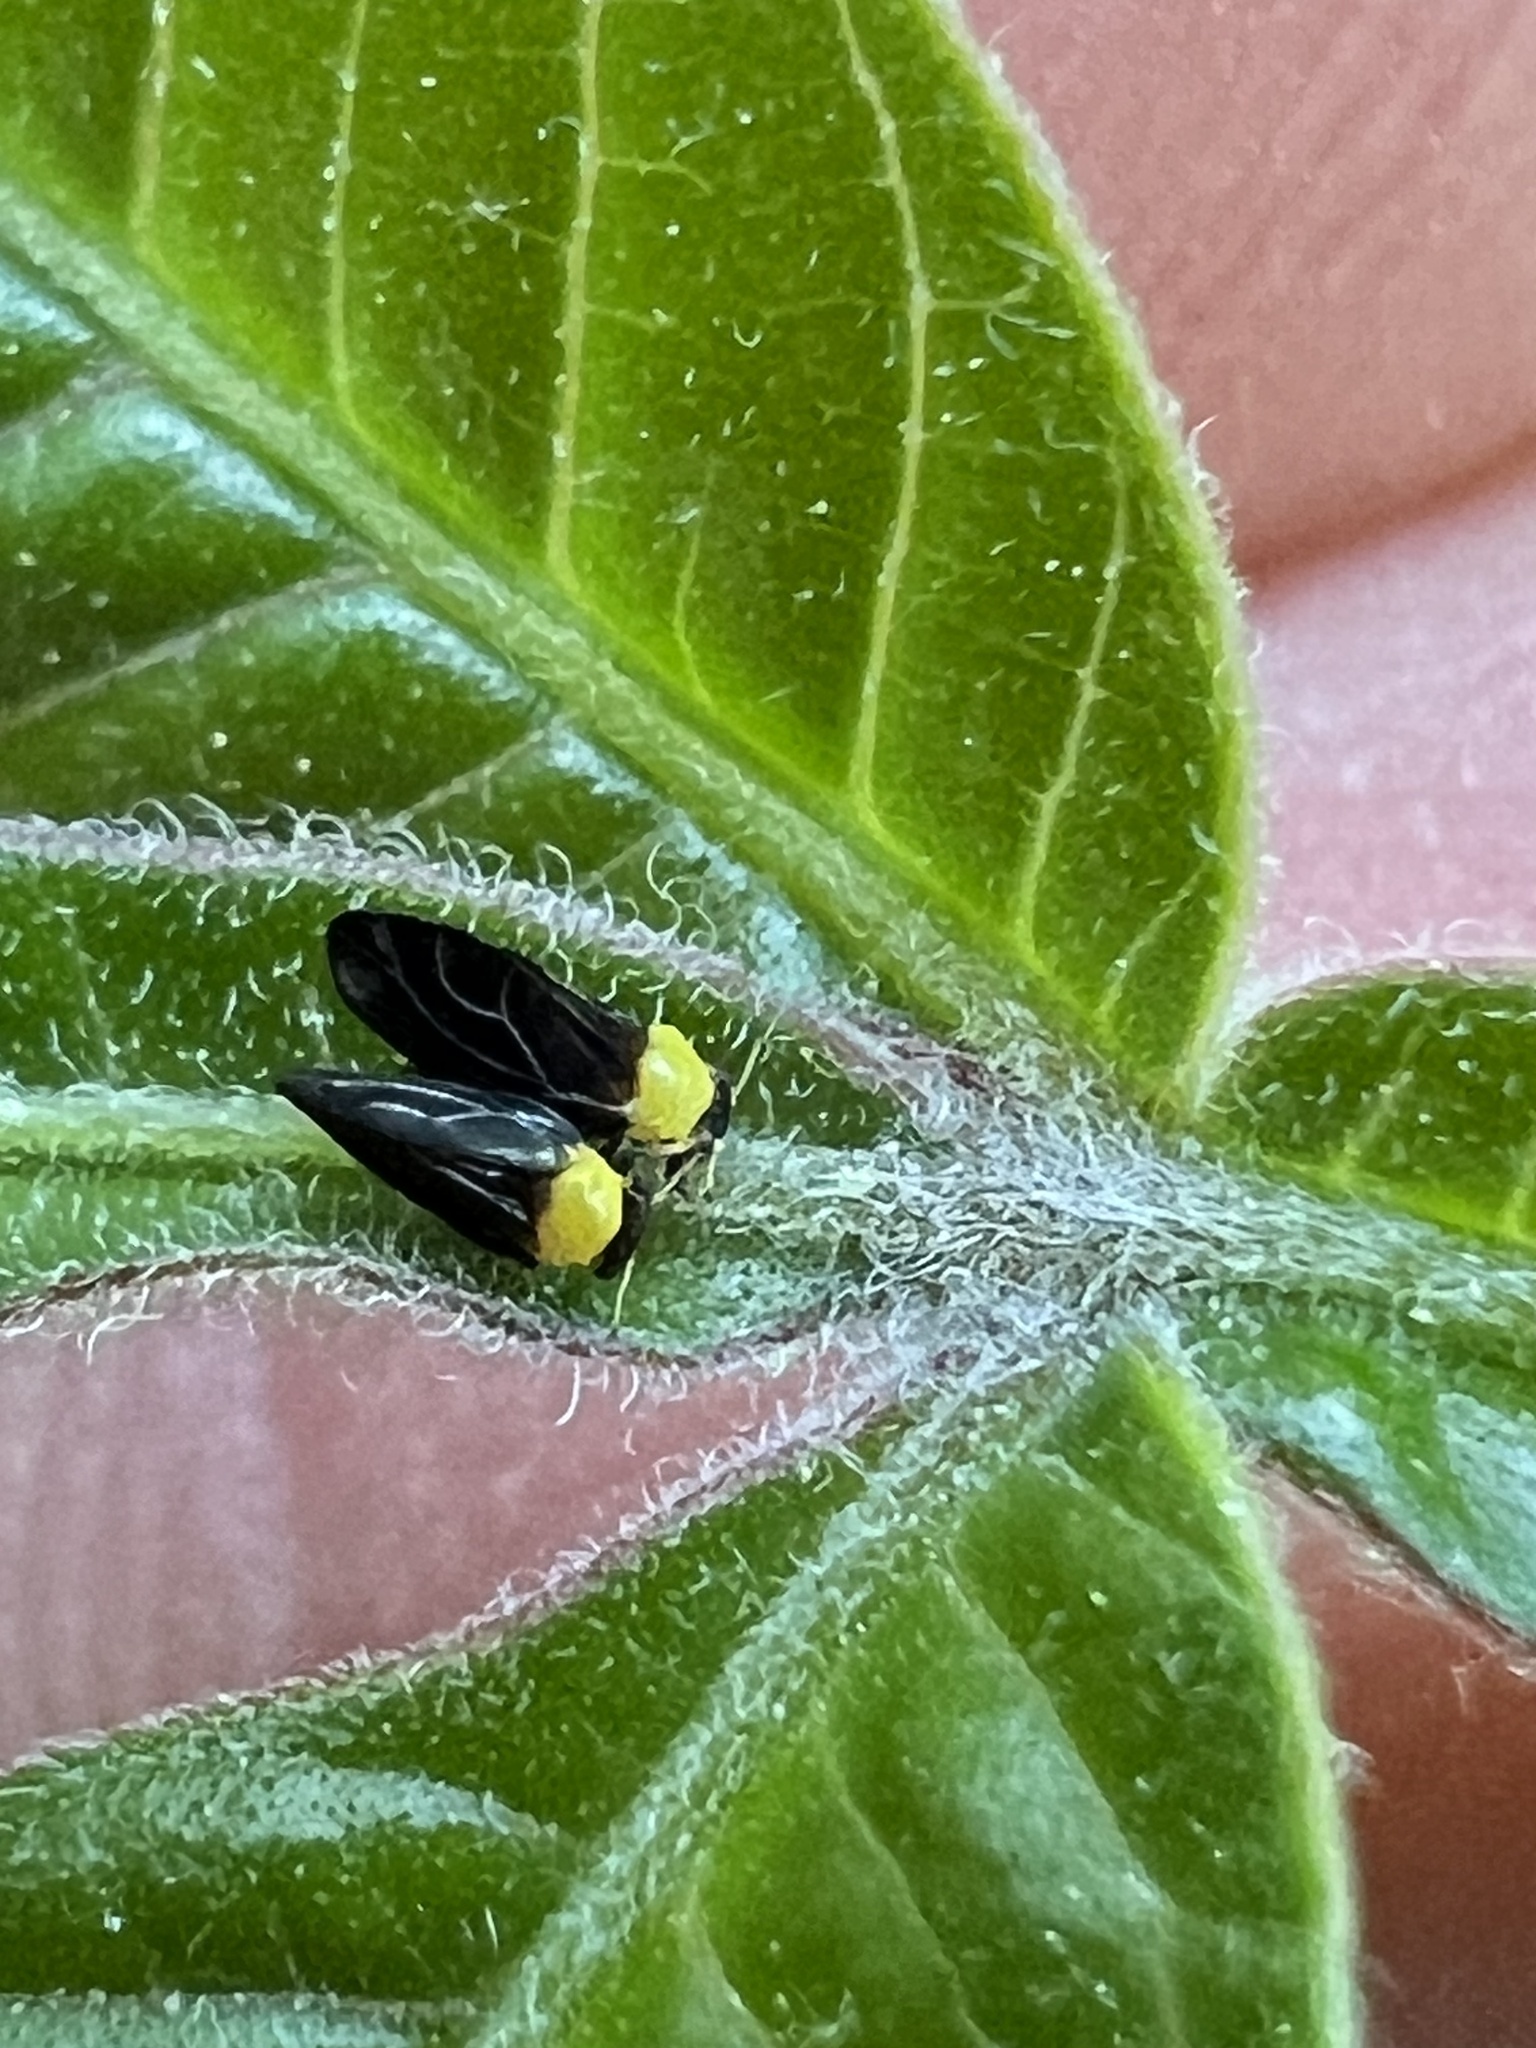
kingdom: Animalia
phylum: Arthropoda
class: Insecta
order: Hemiptera
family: Calophyidae
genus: Calophya
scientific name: Calophya nigripennis
